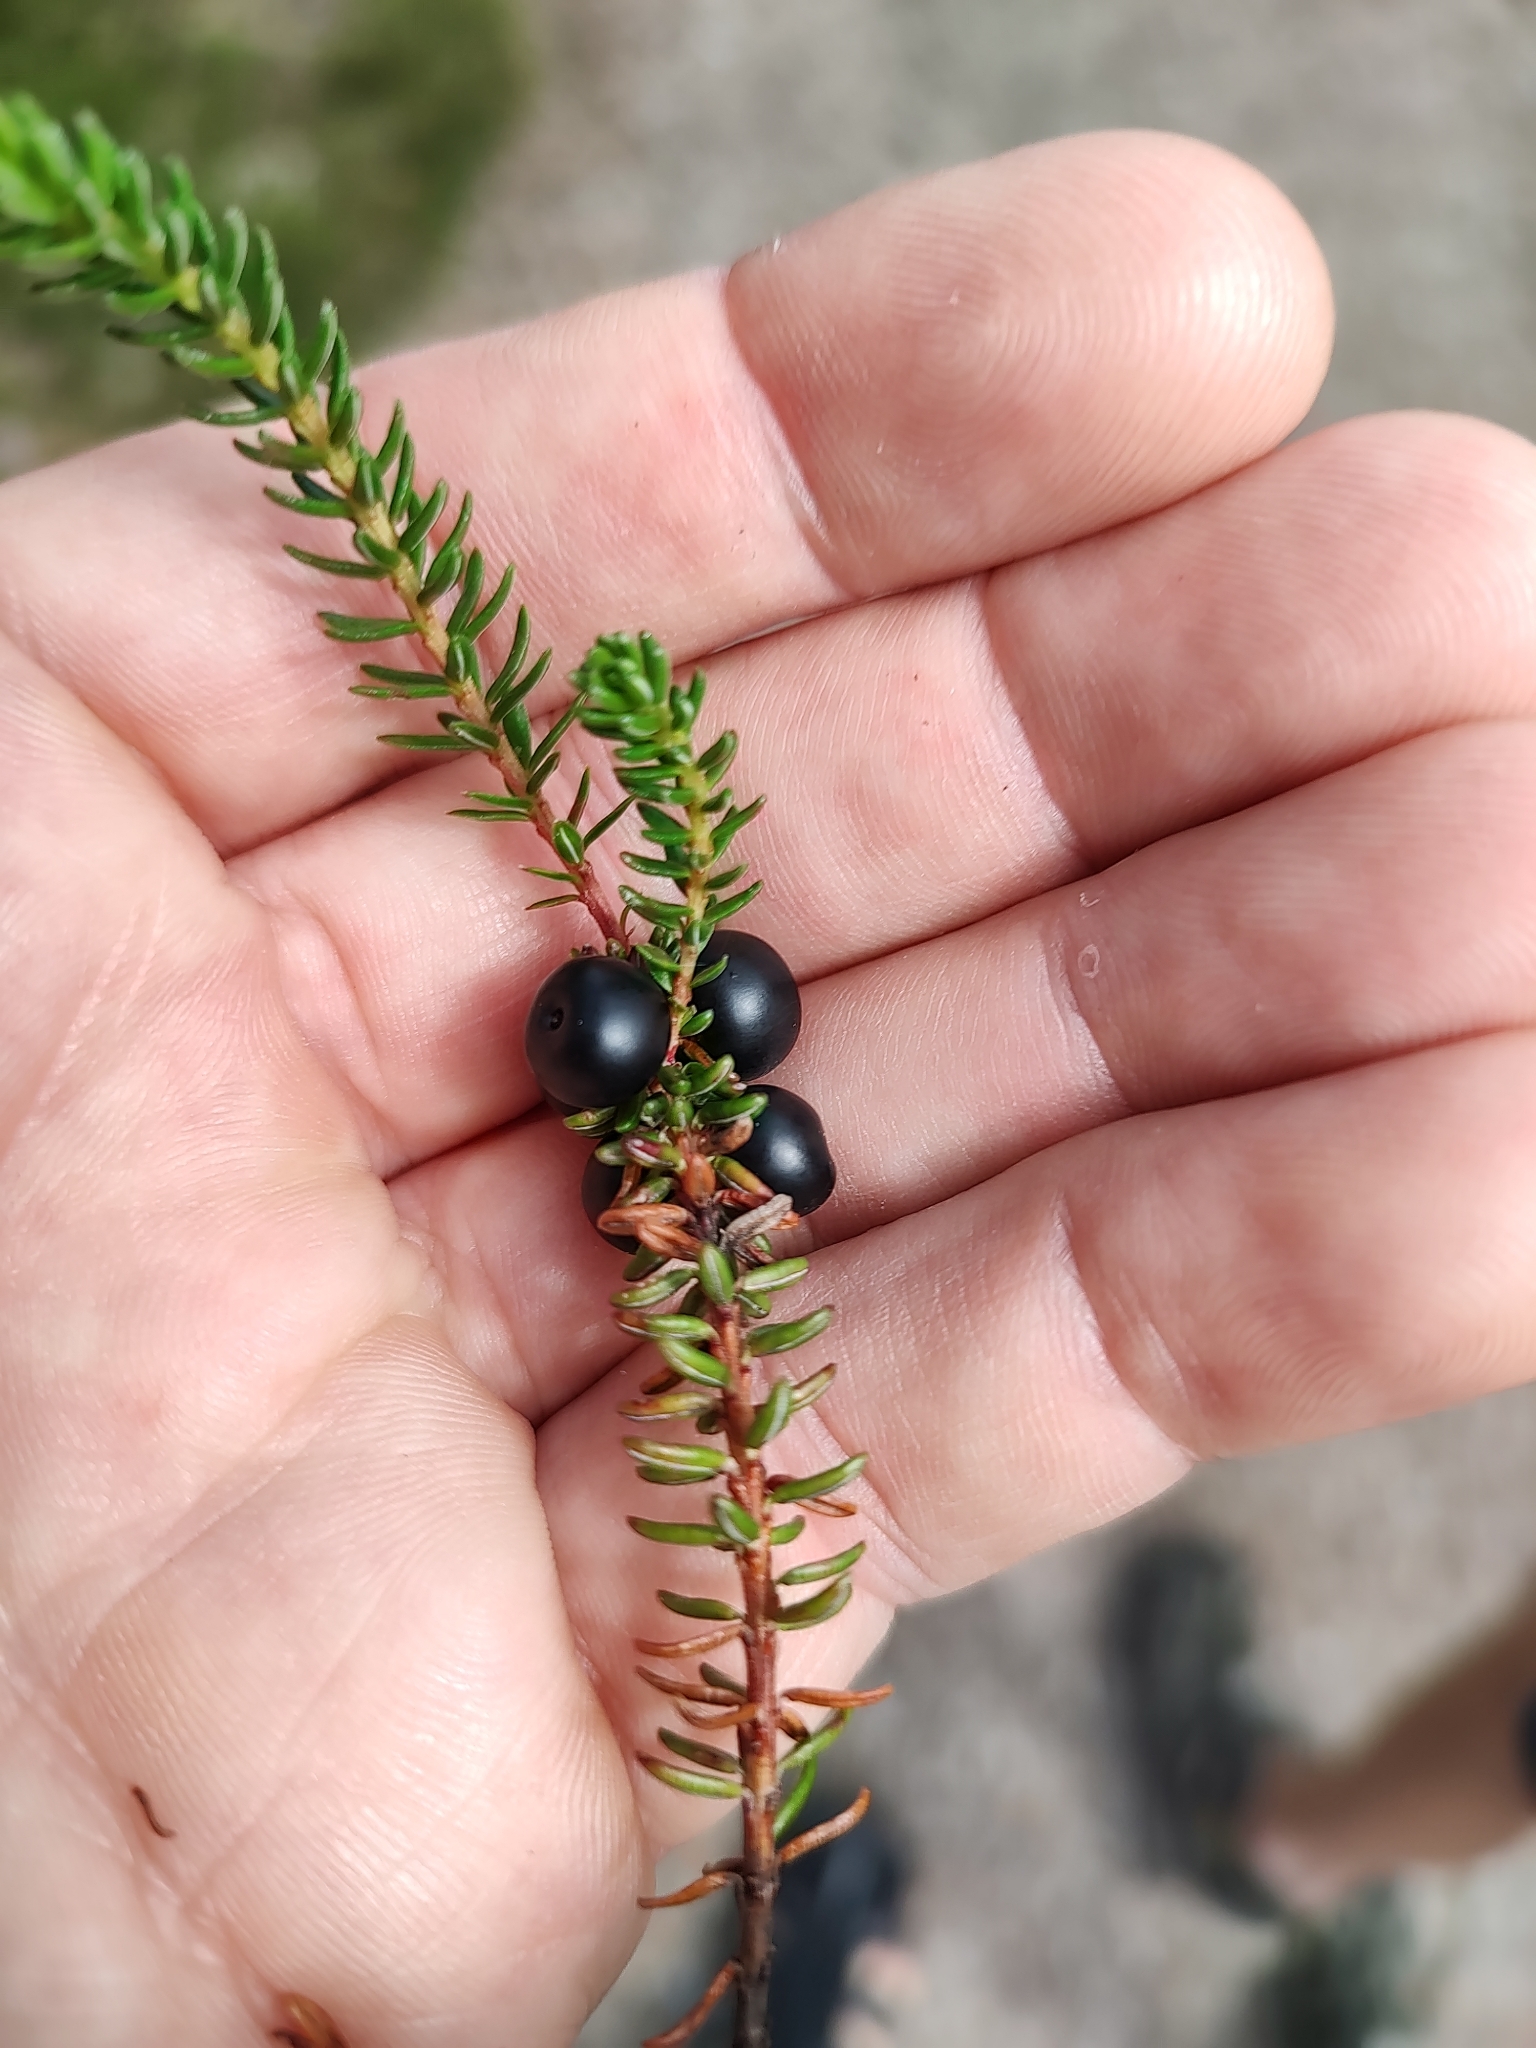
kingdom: Plantae
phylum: Tracheophyta
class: Magnoliopsida
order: Ericales
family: Ericaceae
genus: Empetrum
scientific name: Empetrum nigrum
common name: Black crowberry
